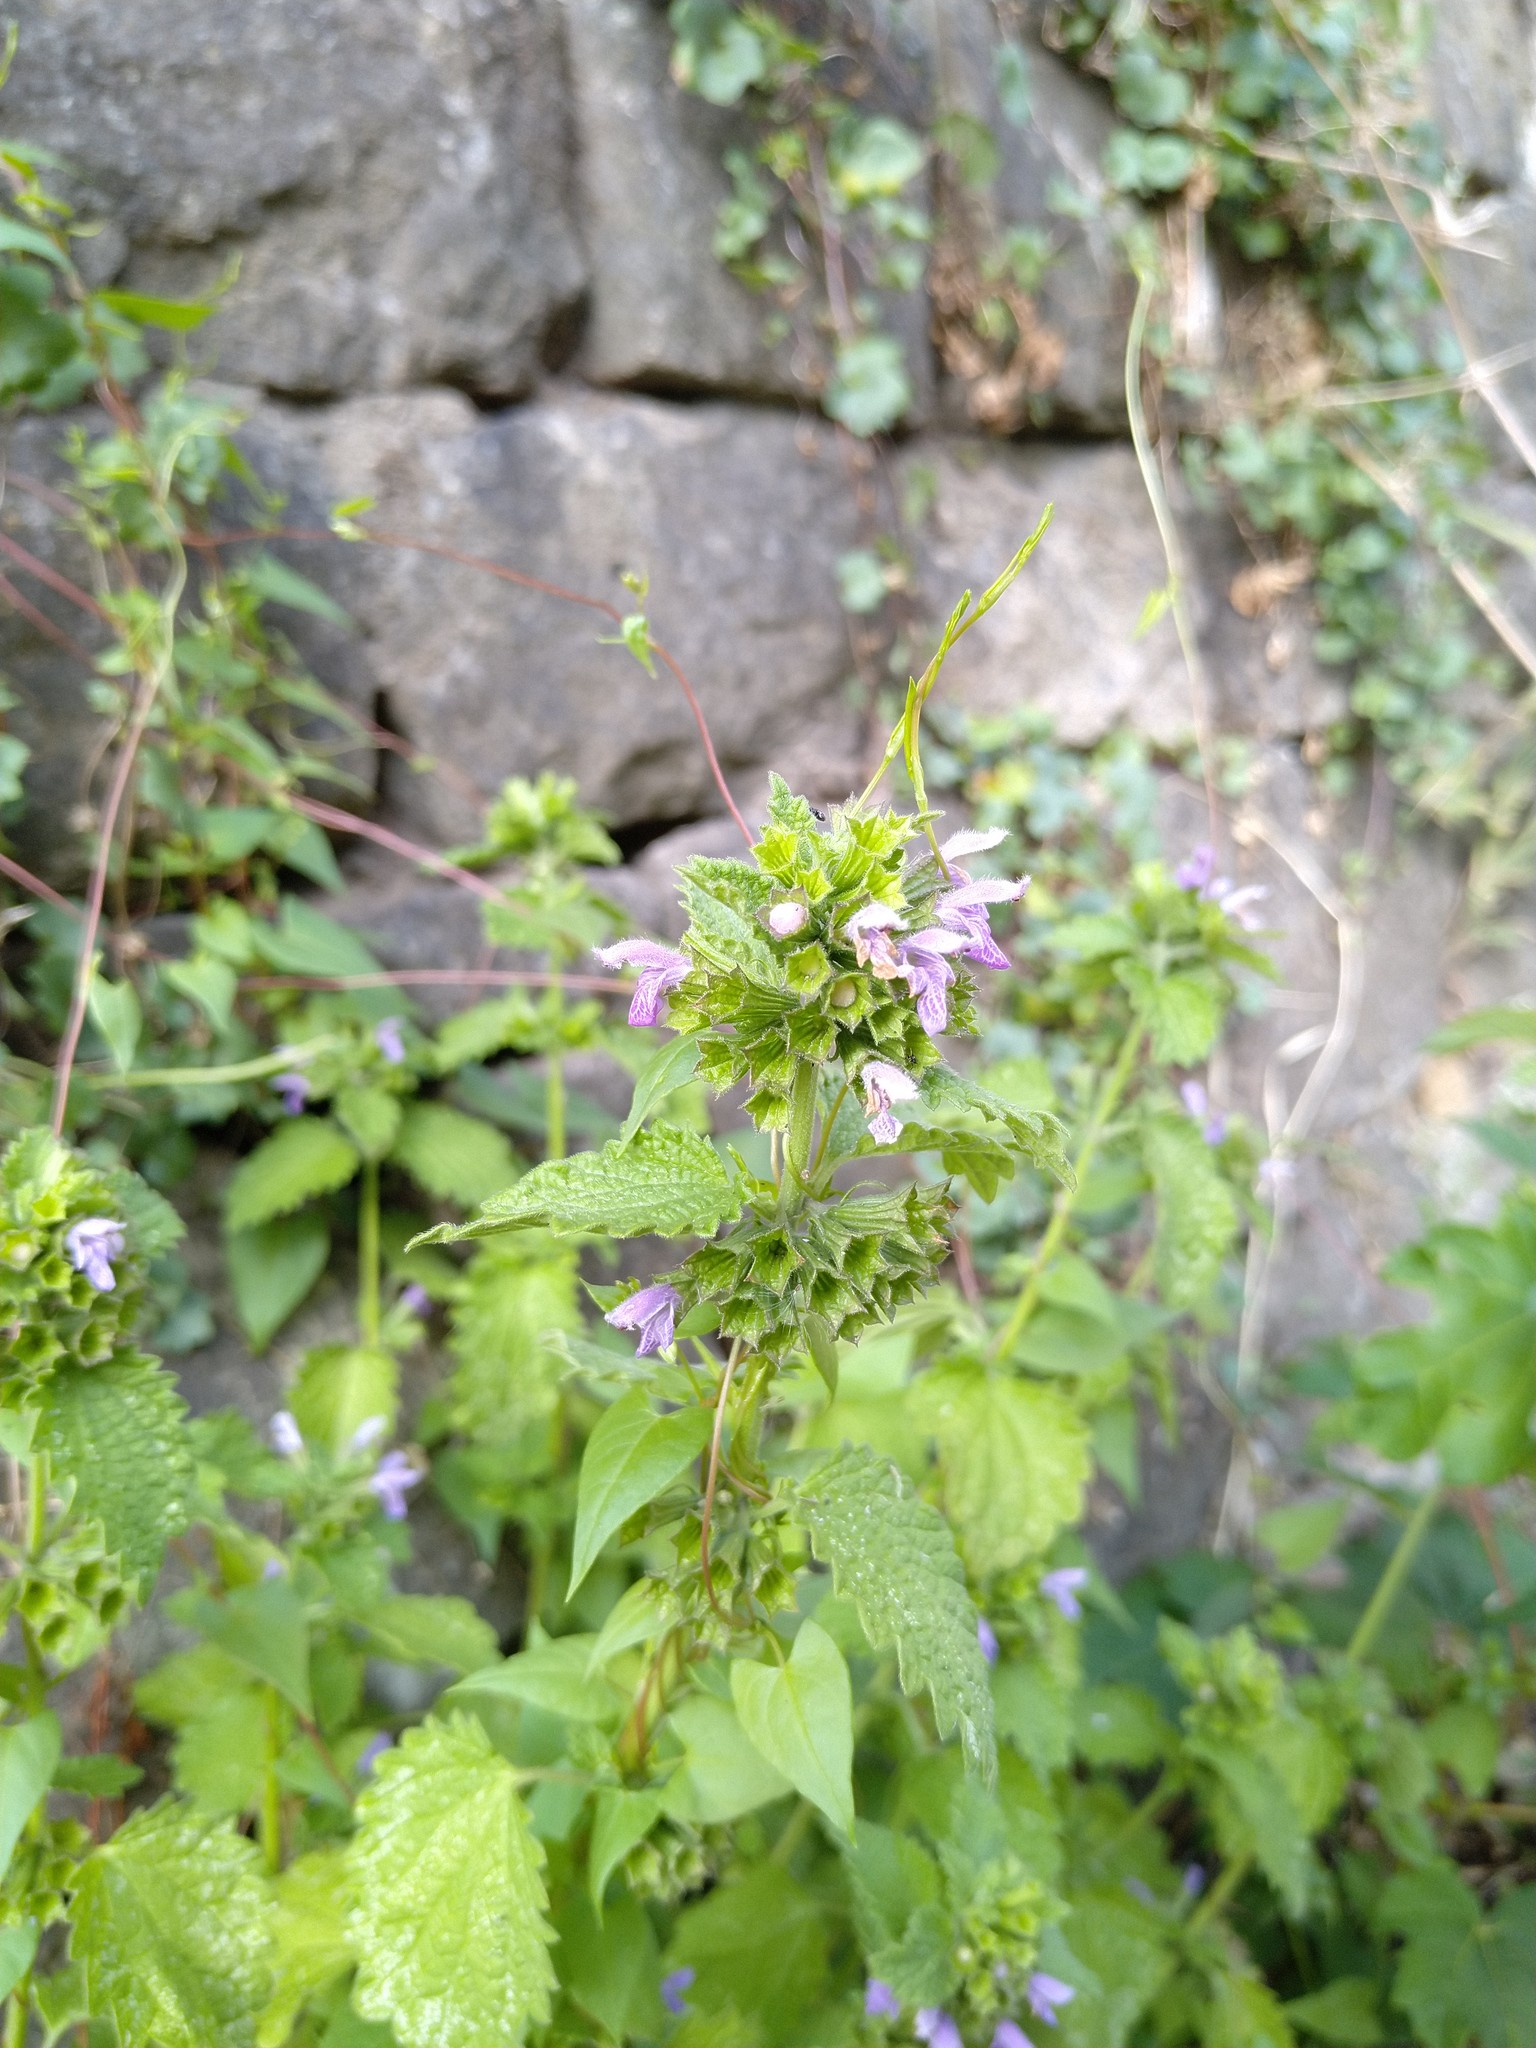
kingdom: Plantae
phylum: Tracheophyta
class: Magnoliopsida
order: Lamiales
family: Lamiaceae
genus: Ballota
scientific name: Ballota nigra
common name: Black horehound
